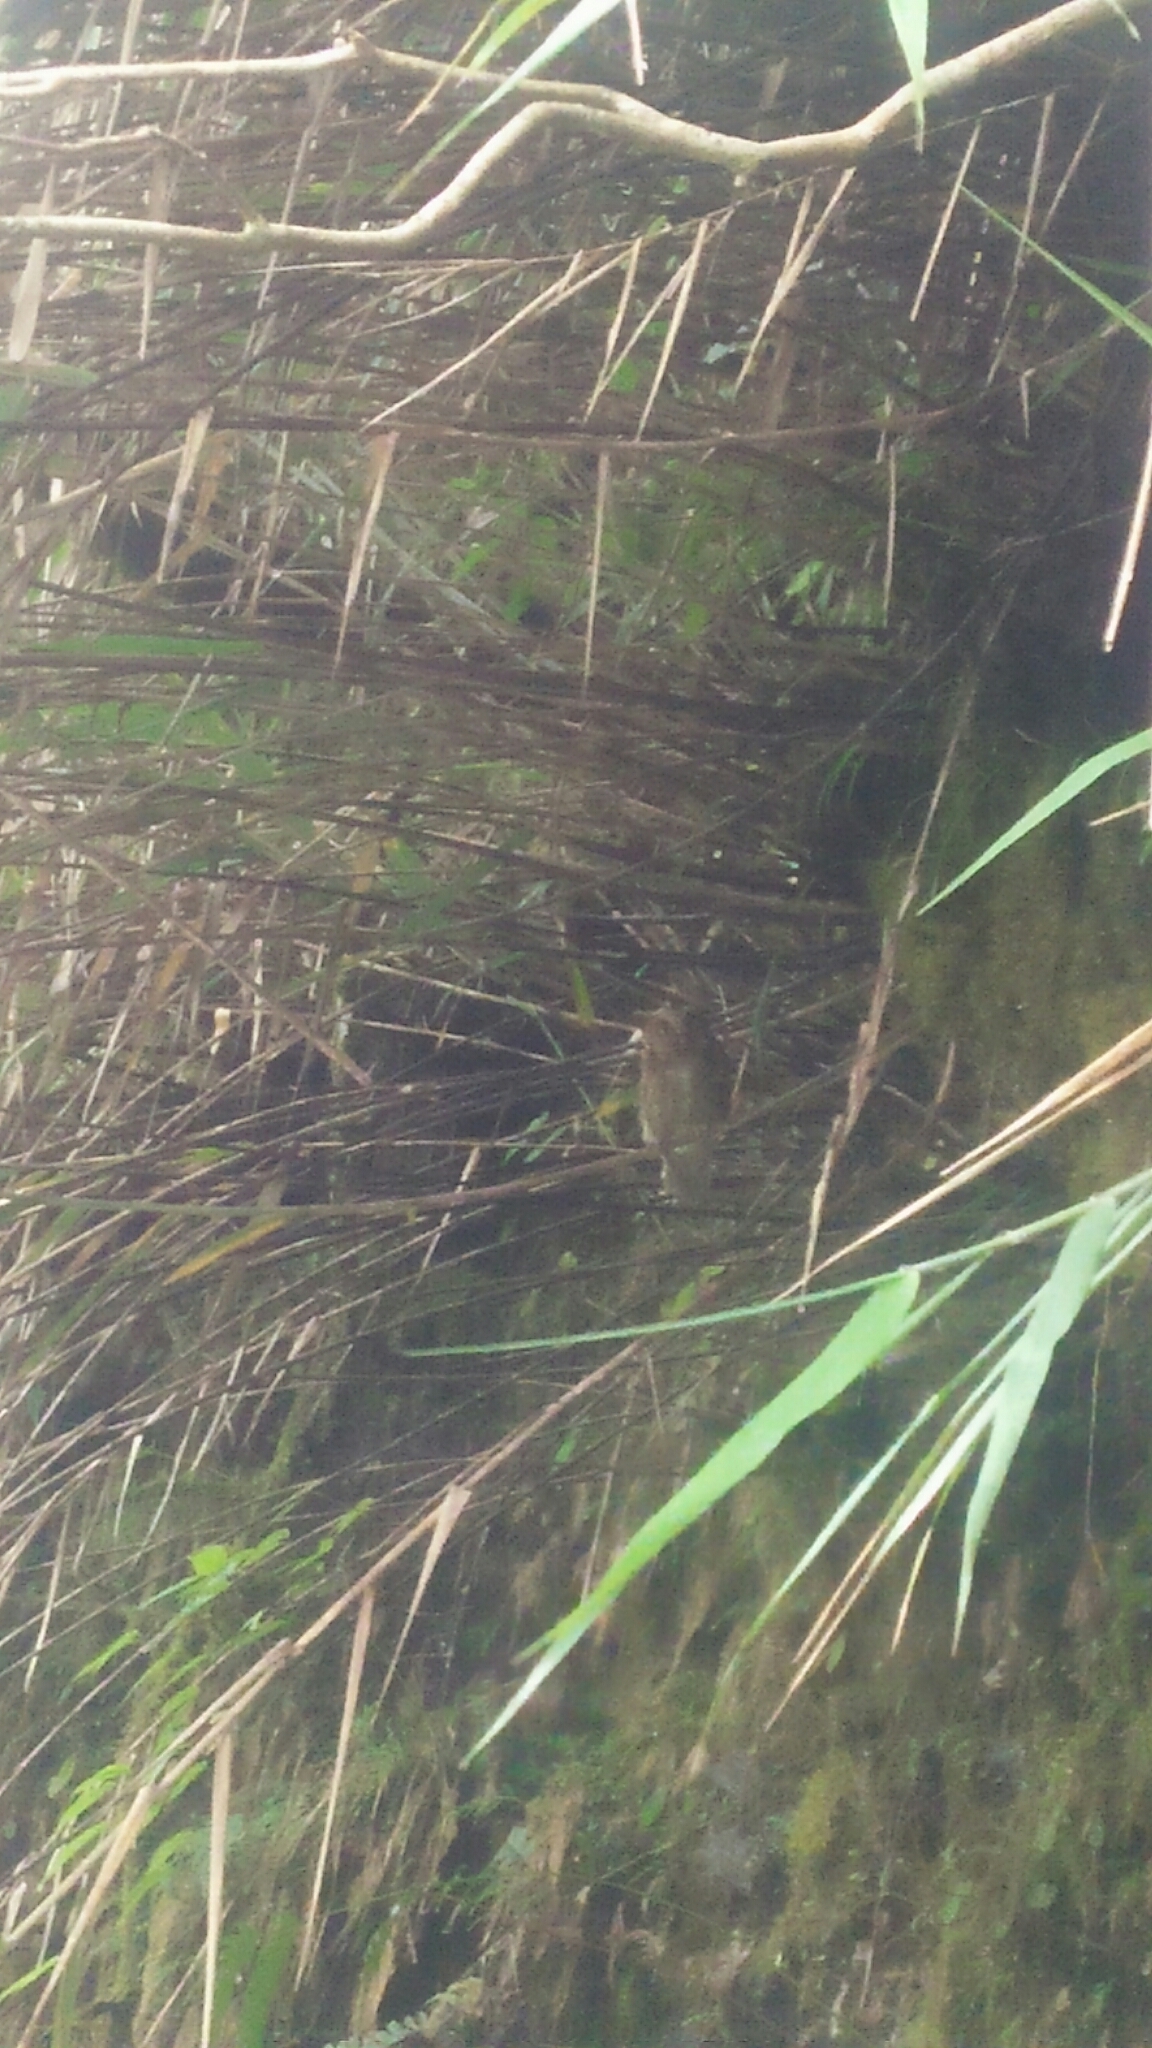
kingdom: Animalia
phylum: Chordata
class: Aves
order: Strigiformes
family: Strigidae
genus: Otus
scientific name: Otus spilocephalus
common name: Mountain scops owl
